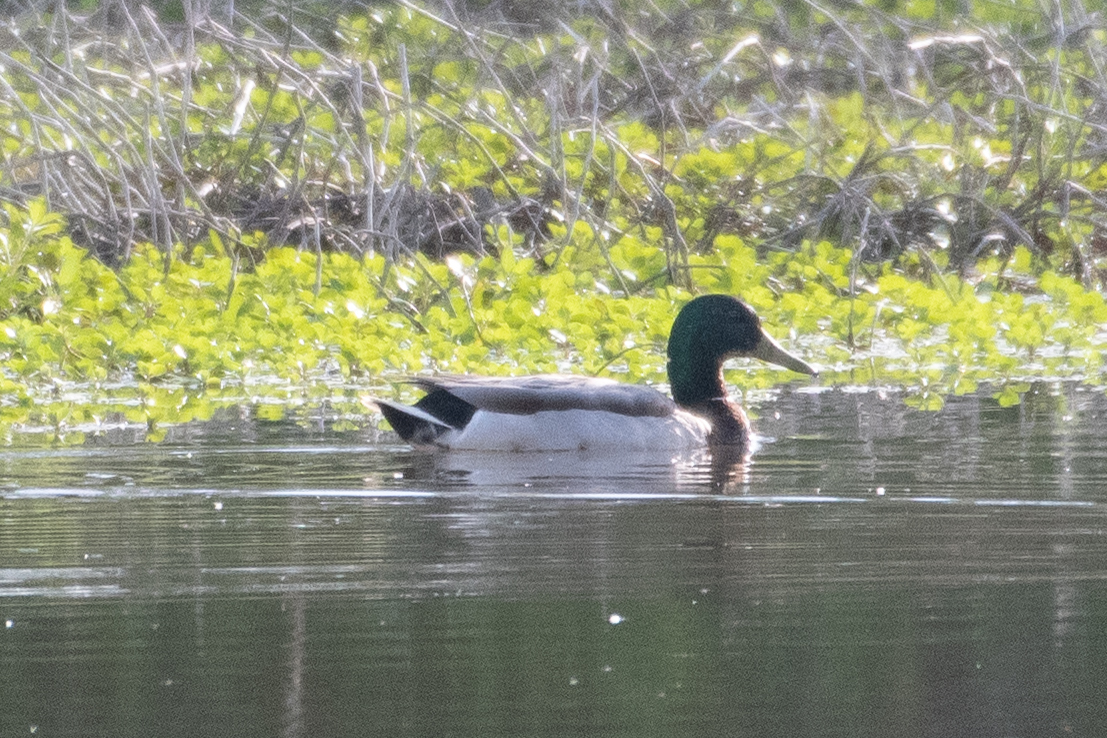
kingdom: Animalia
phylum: Chordata
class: Aves
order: Anseriformes
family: Anatidae
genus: Anas
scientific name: Anas platyrhynchos
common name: Mallard
